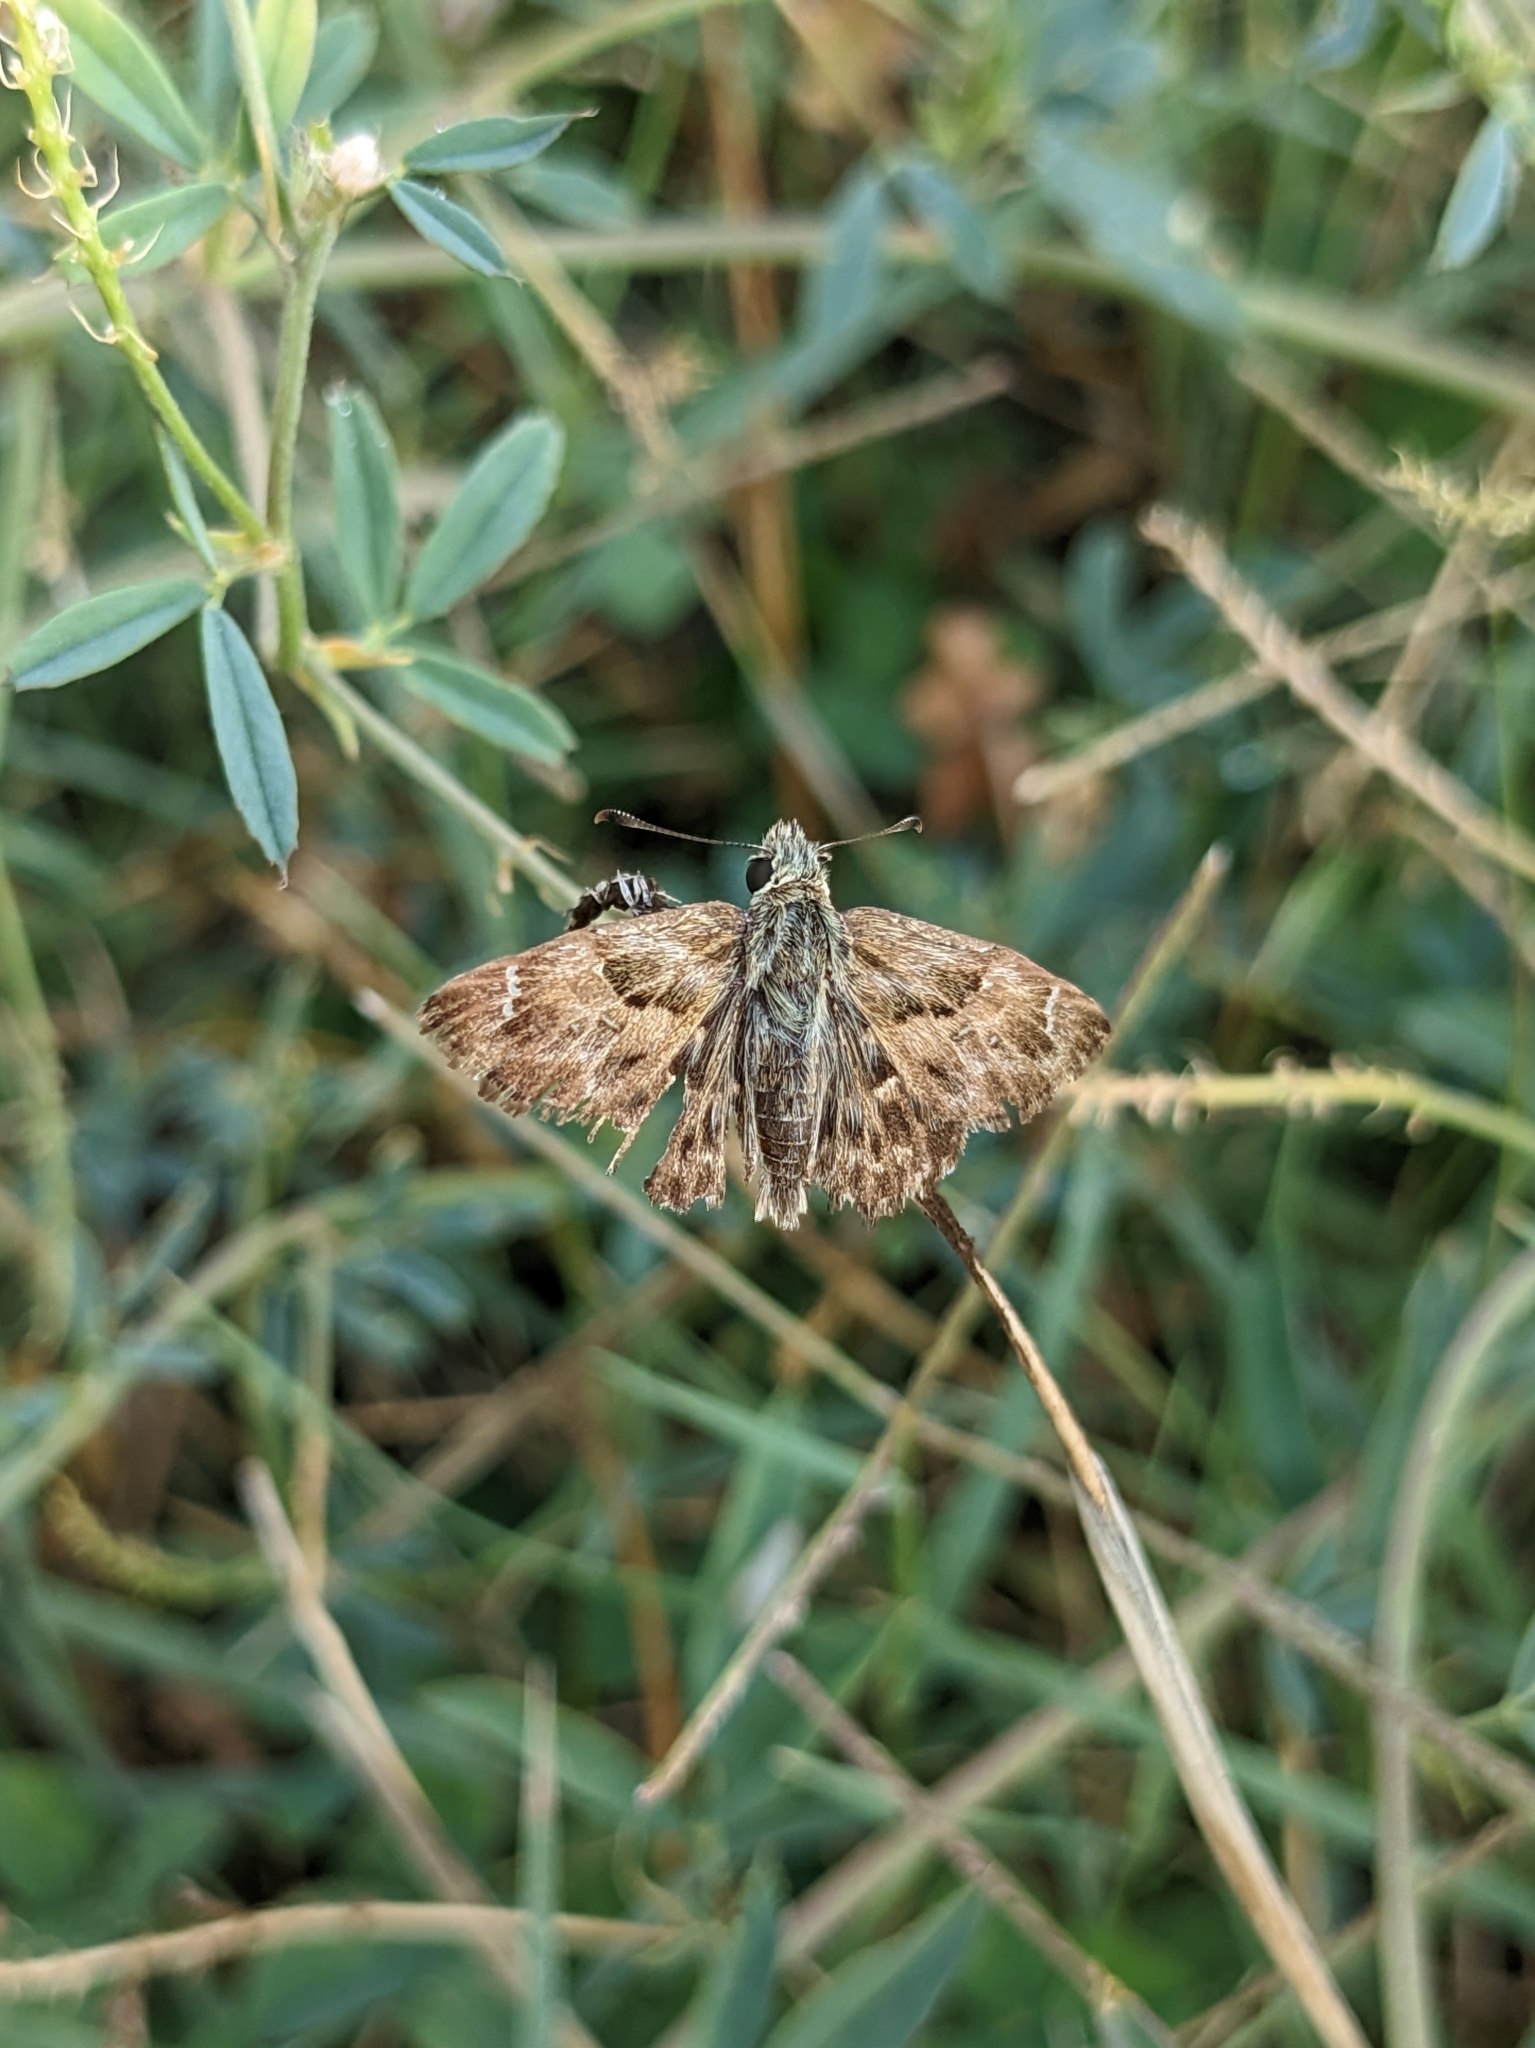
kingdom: Animalia
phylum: Arthropoda
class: Insecta
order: Lepidoptera
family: Hesperiidae
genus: Carcharodus
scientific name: Carcharodus alceae
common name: Mallow skipper
